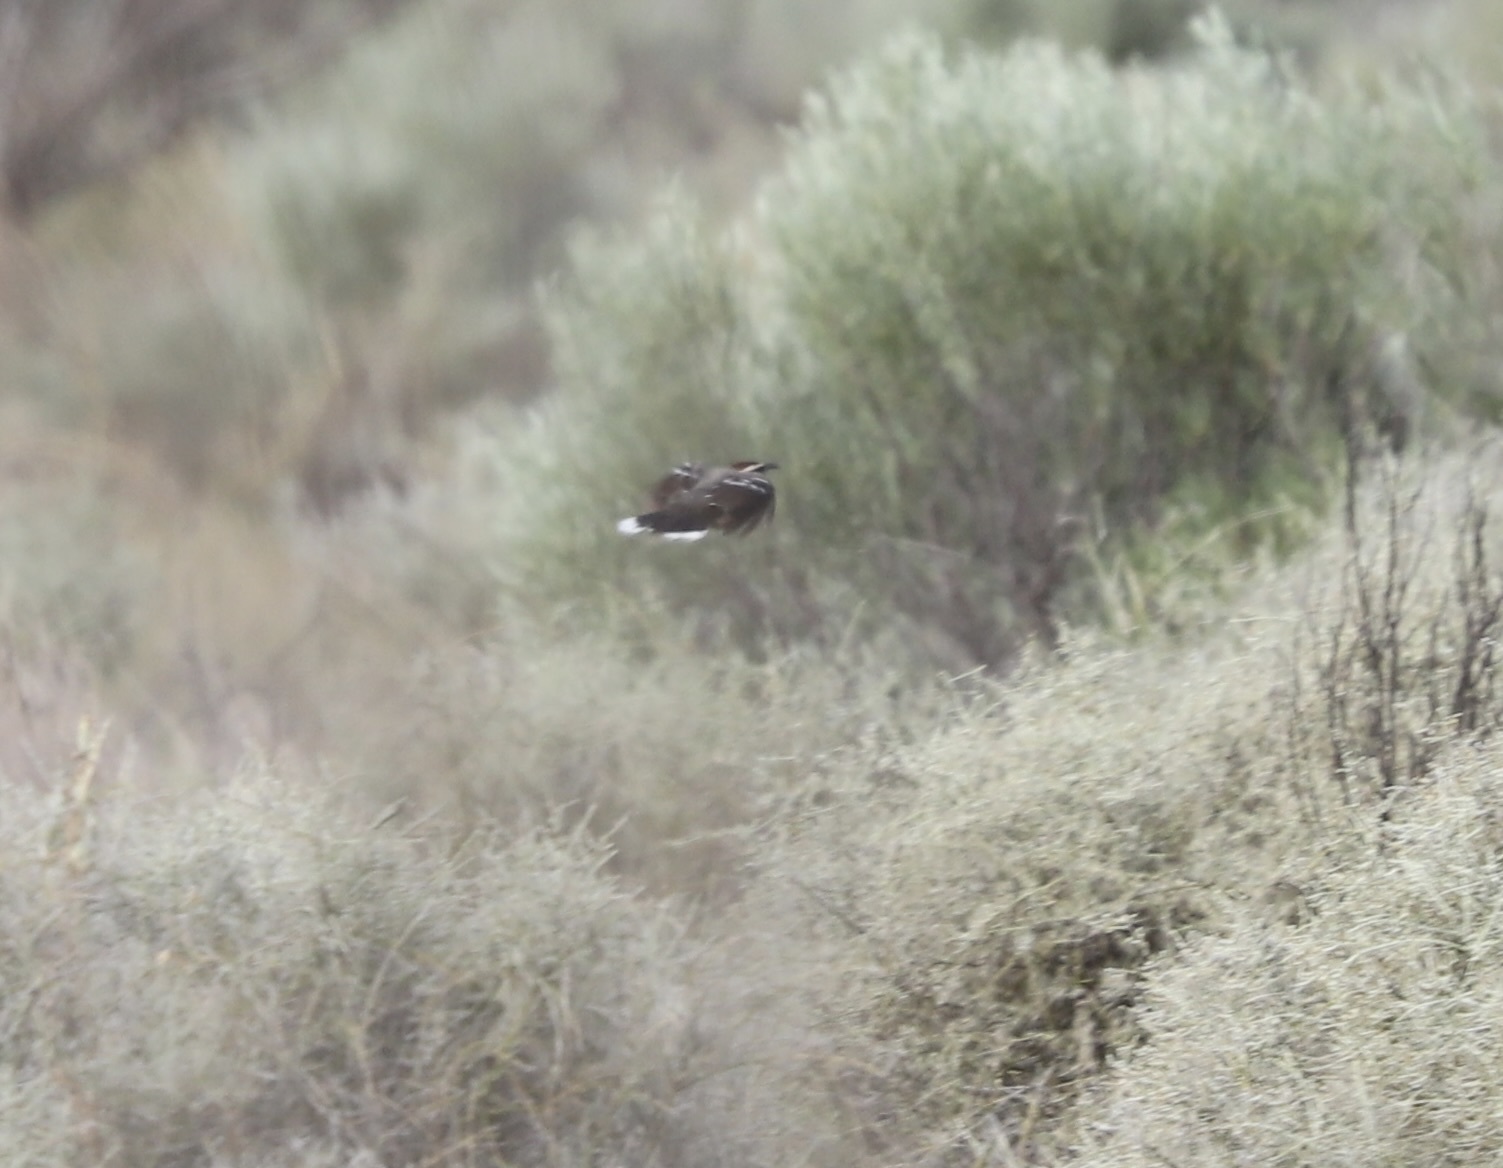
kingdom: Animalia
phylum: Chordata
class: Aves
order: Passeriformes
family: Pomatostomidae
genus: Pomatostomus
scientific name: Pomatostomus ruficeps
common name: Chestnut-crowned babbler
